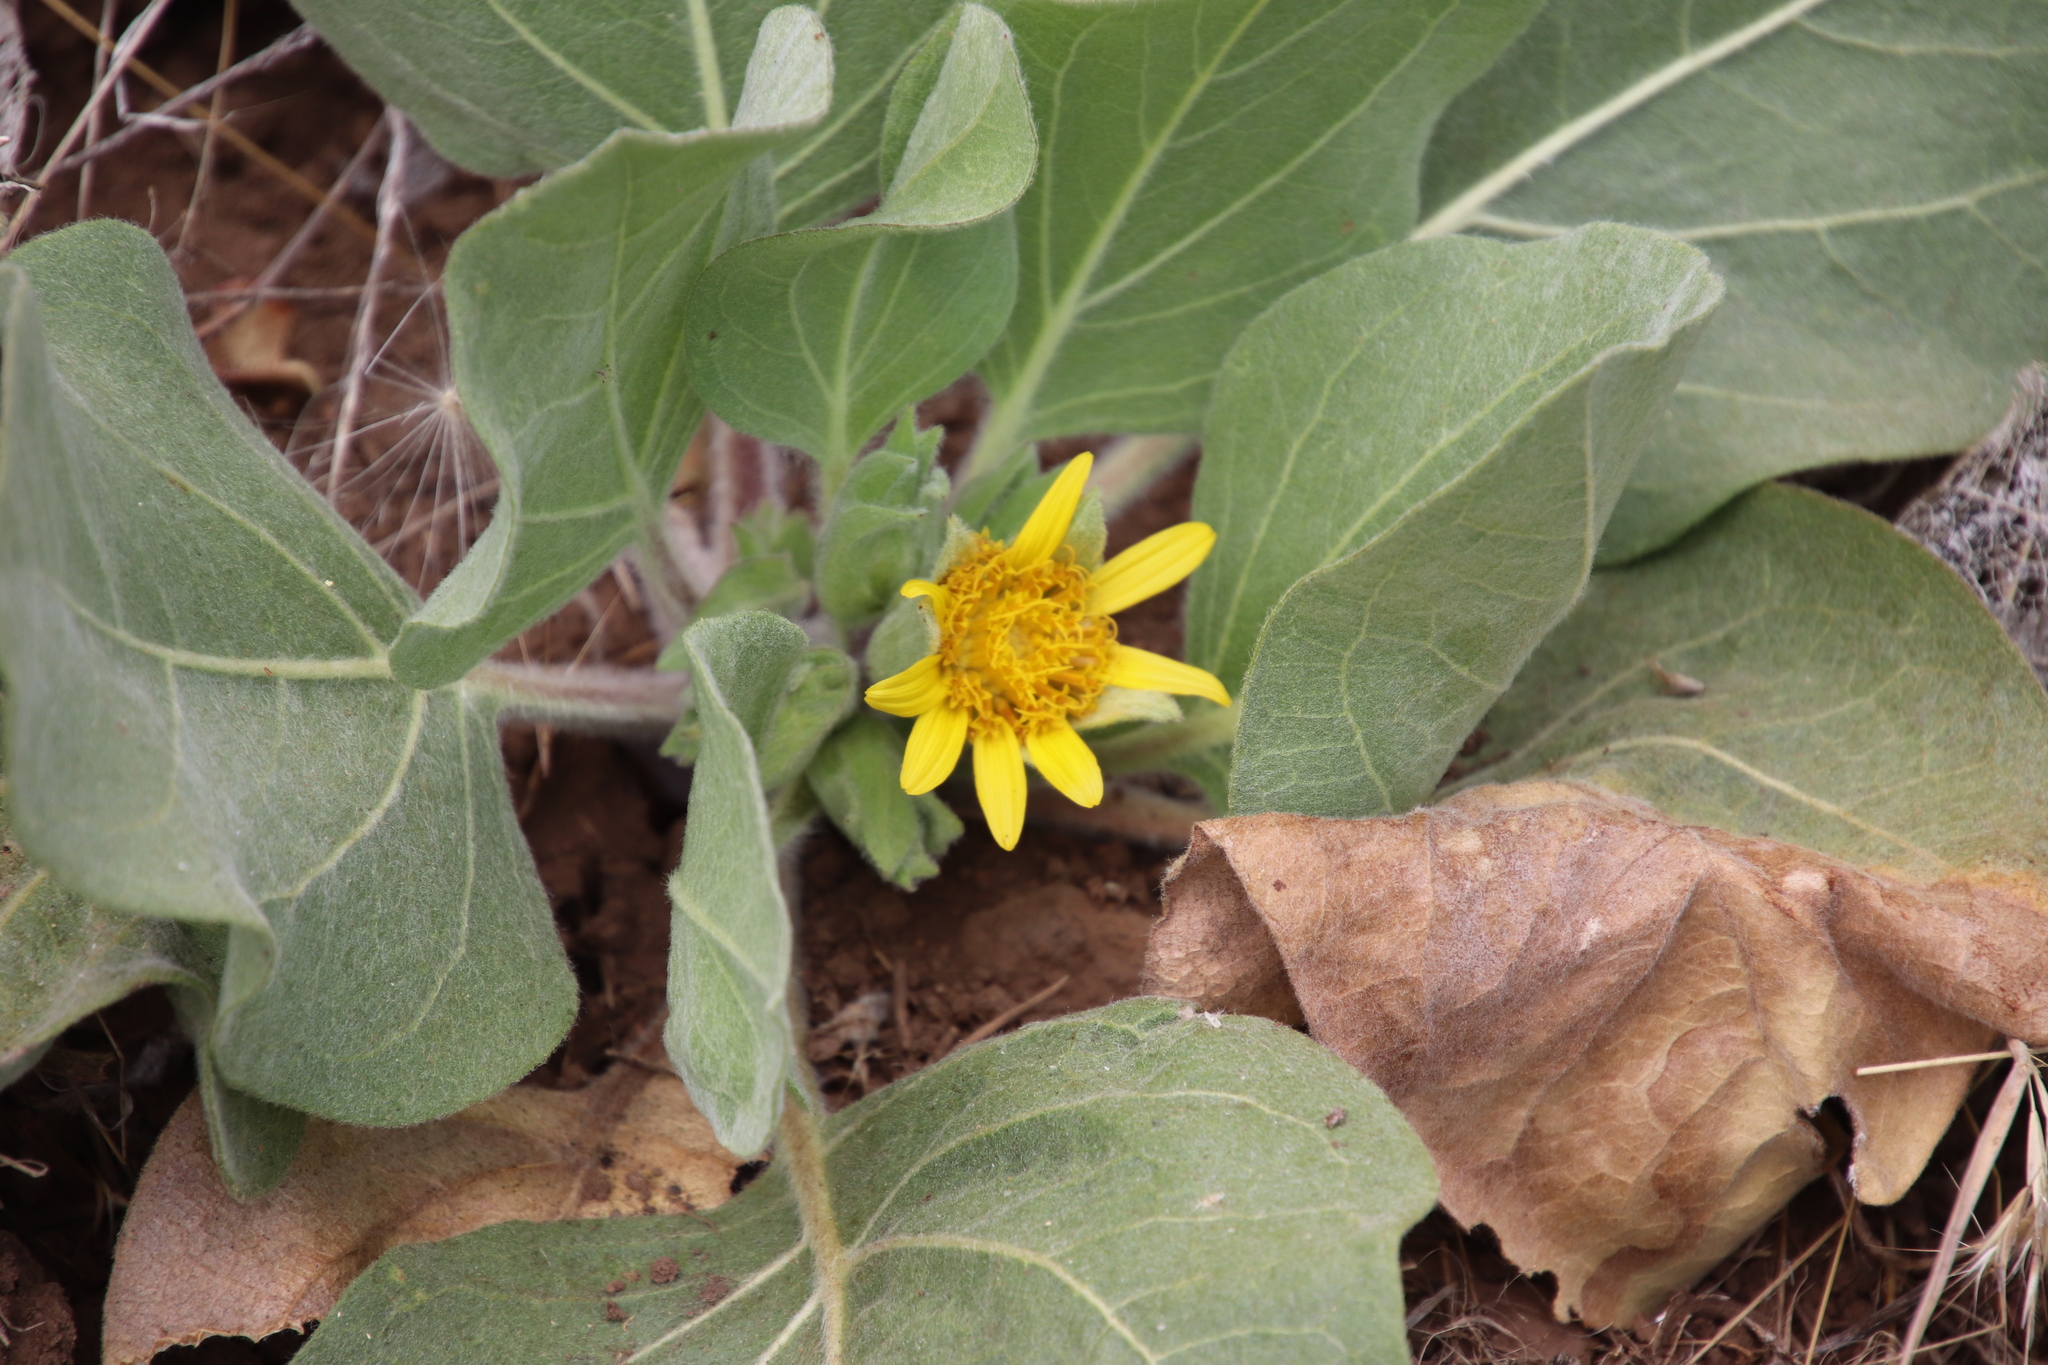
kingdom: Plantae
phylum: Tracheophyta
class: Magnoliopsida
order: Asterales
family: Asteraceae
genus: Agnorhiza
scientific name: Agnorhiza ovata
